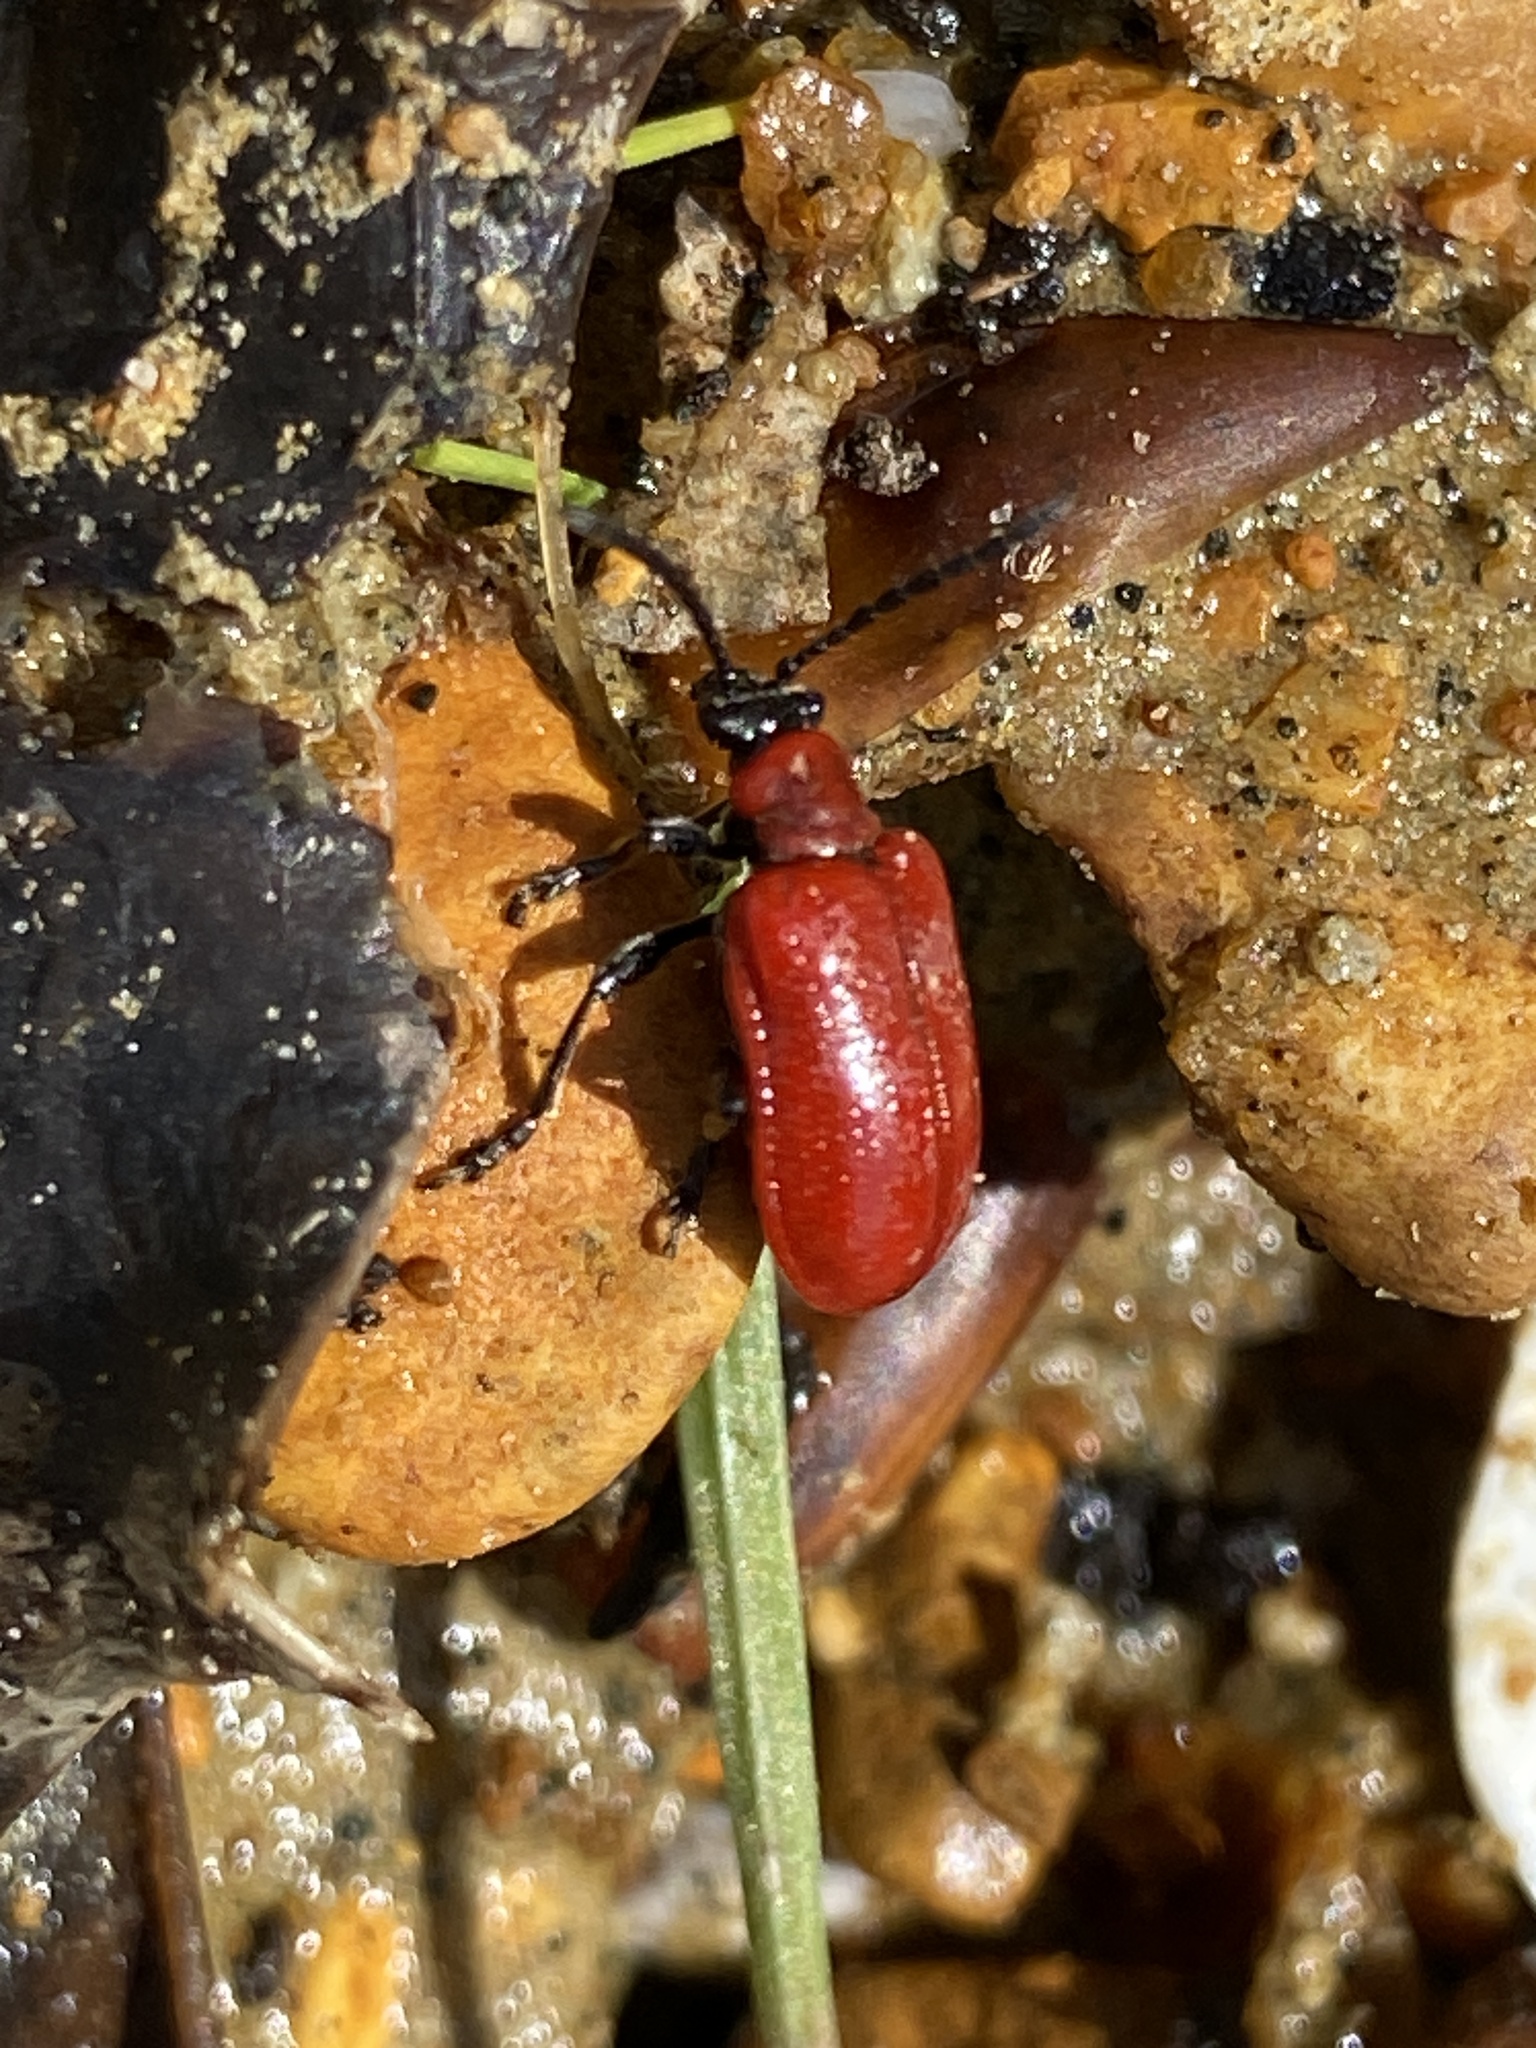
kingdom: Animalia
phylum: Arthropoda
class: Insecta
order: Coleoptera
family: Chrysomelidae
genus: Lilioceris
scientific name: Lilioceris lilii
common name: Lily beetle
